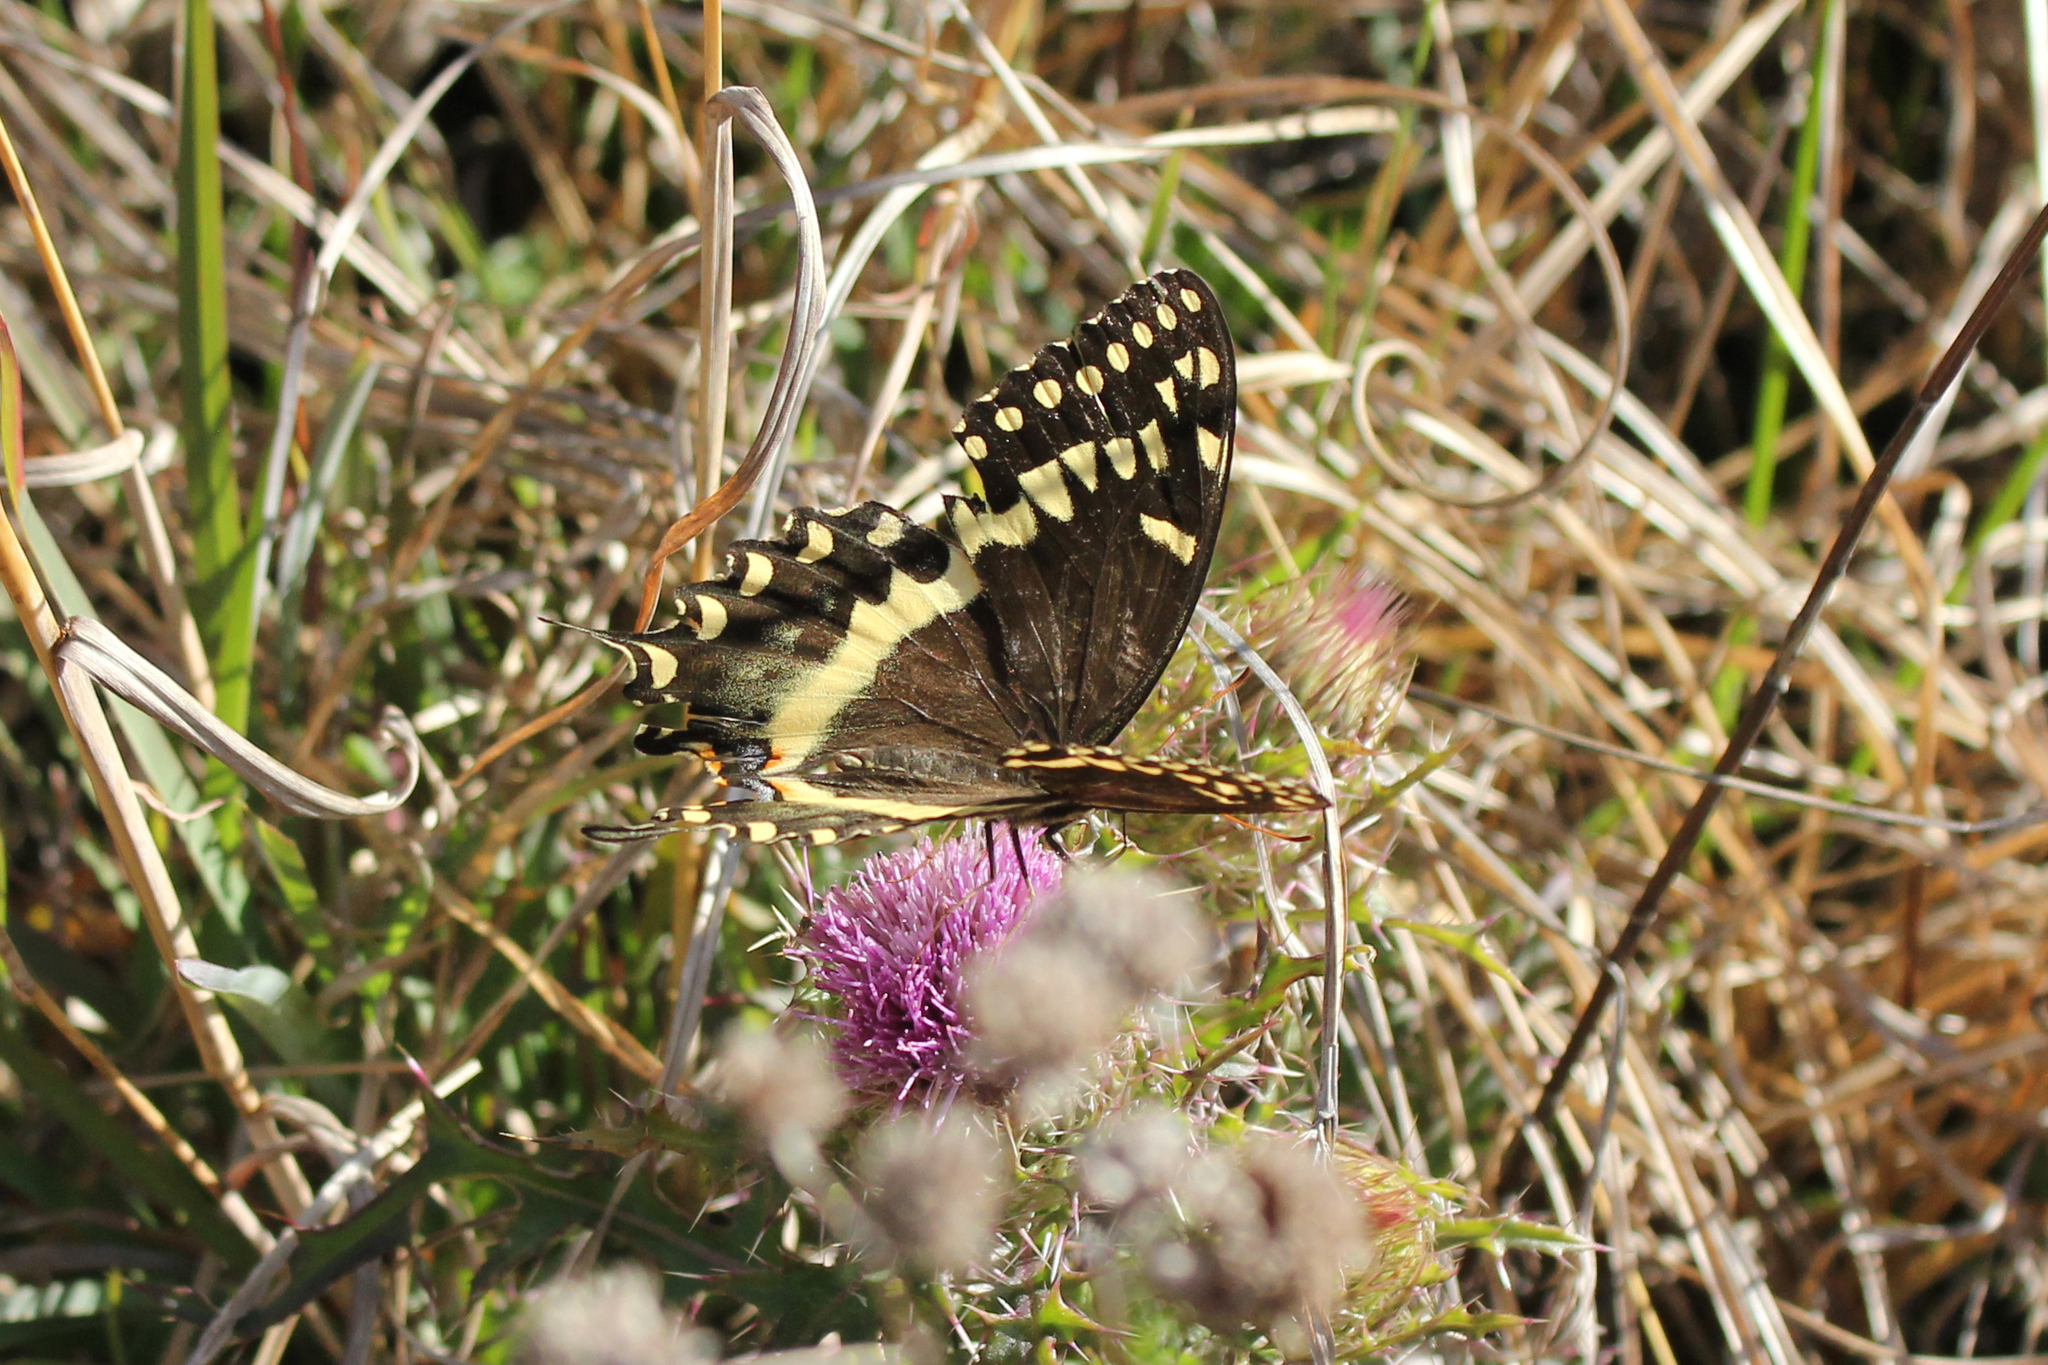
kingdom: Animalia
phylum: Arthropoda
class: Insecta
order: Lepidoptera
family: Papilionidae
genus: Papilio
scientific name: Papilio palamedes
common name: Palamedes swallowtail
